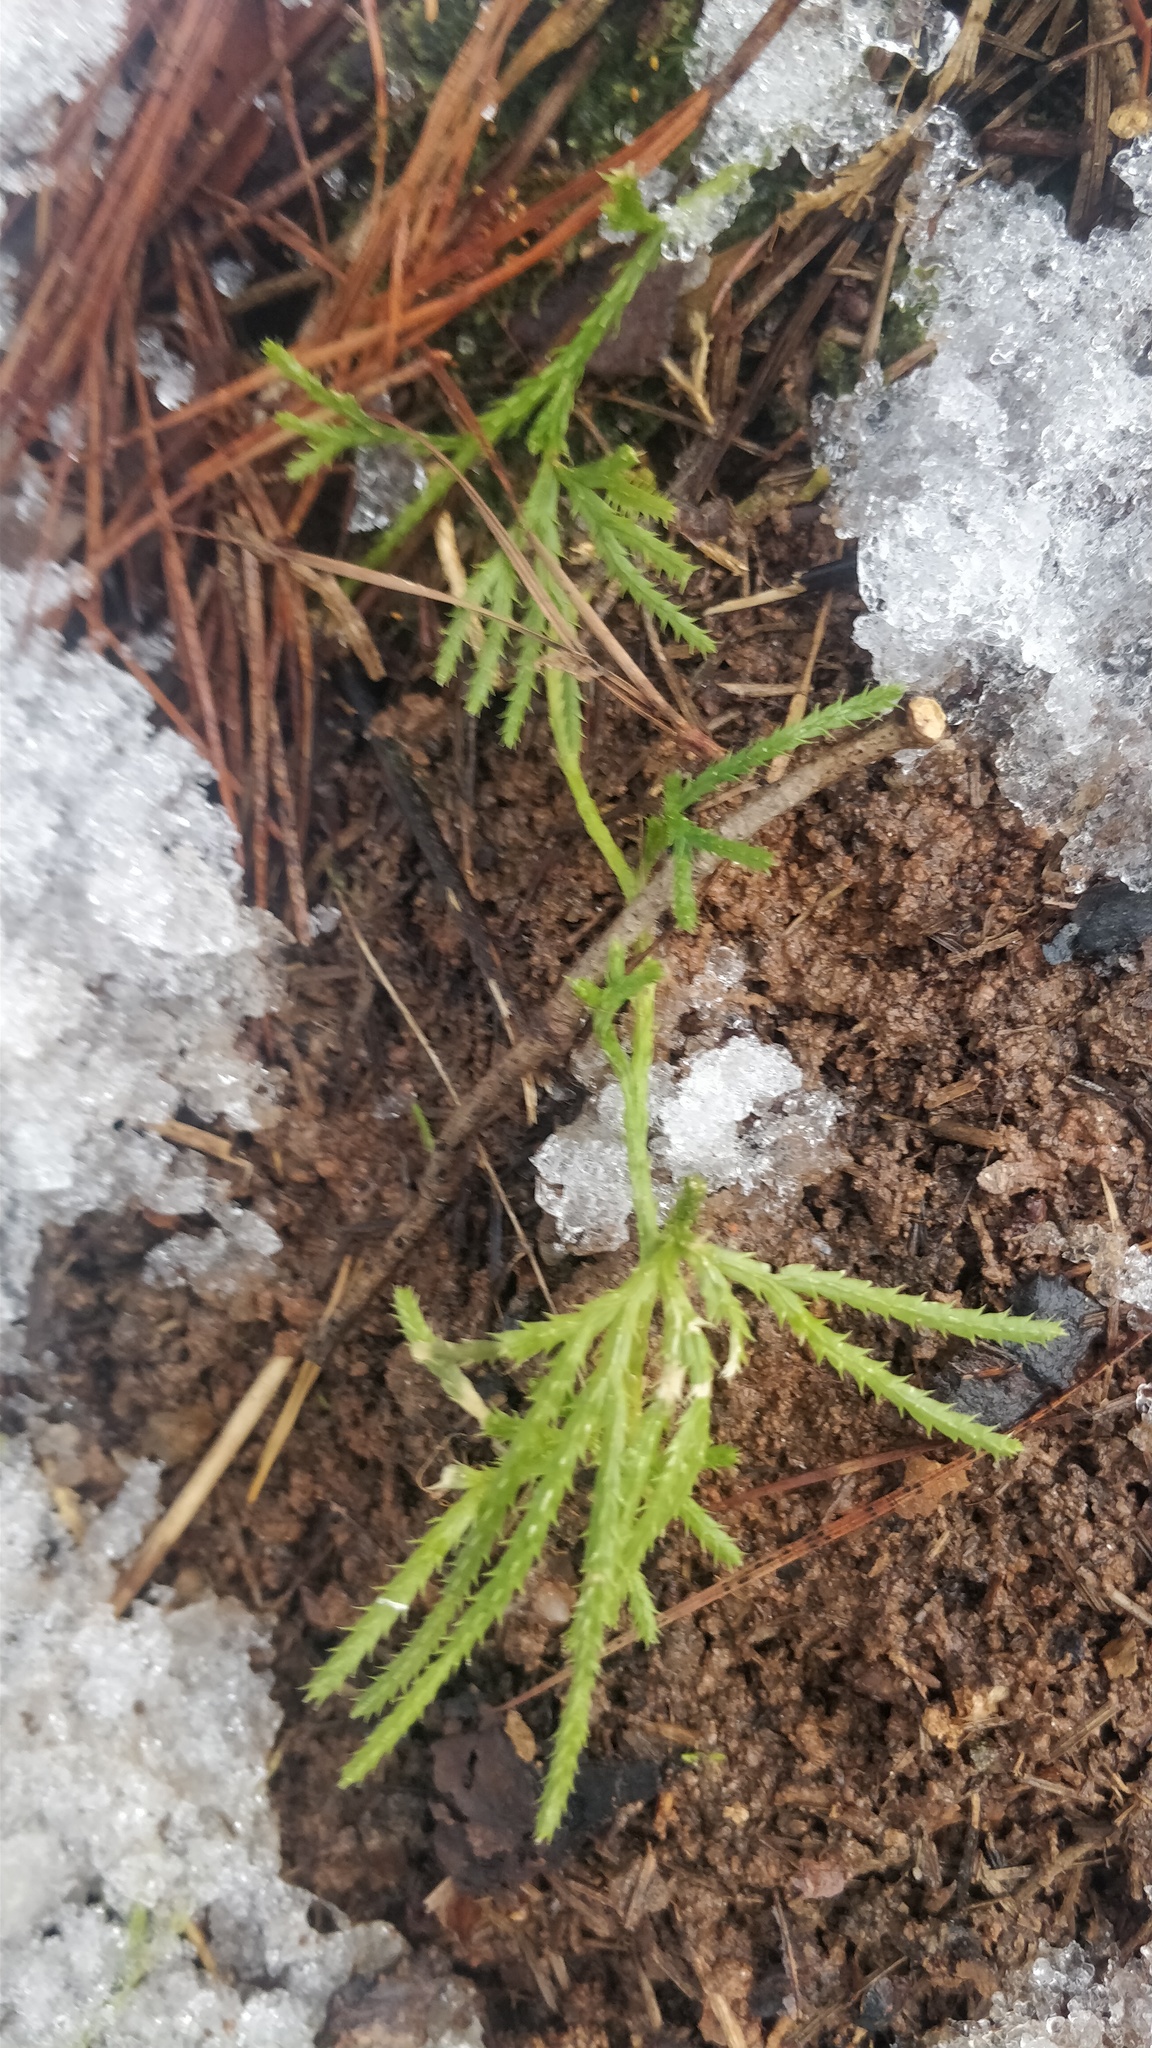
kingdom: Plantae
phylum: Tracheophyta
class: Lycopodiopsida
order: Lycopodiales
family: Lycopodiaceae
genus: Diphasiastrum
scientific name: Diphasiastrum digitatum
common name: Southern running-pine
